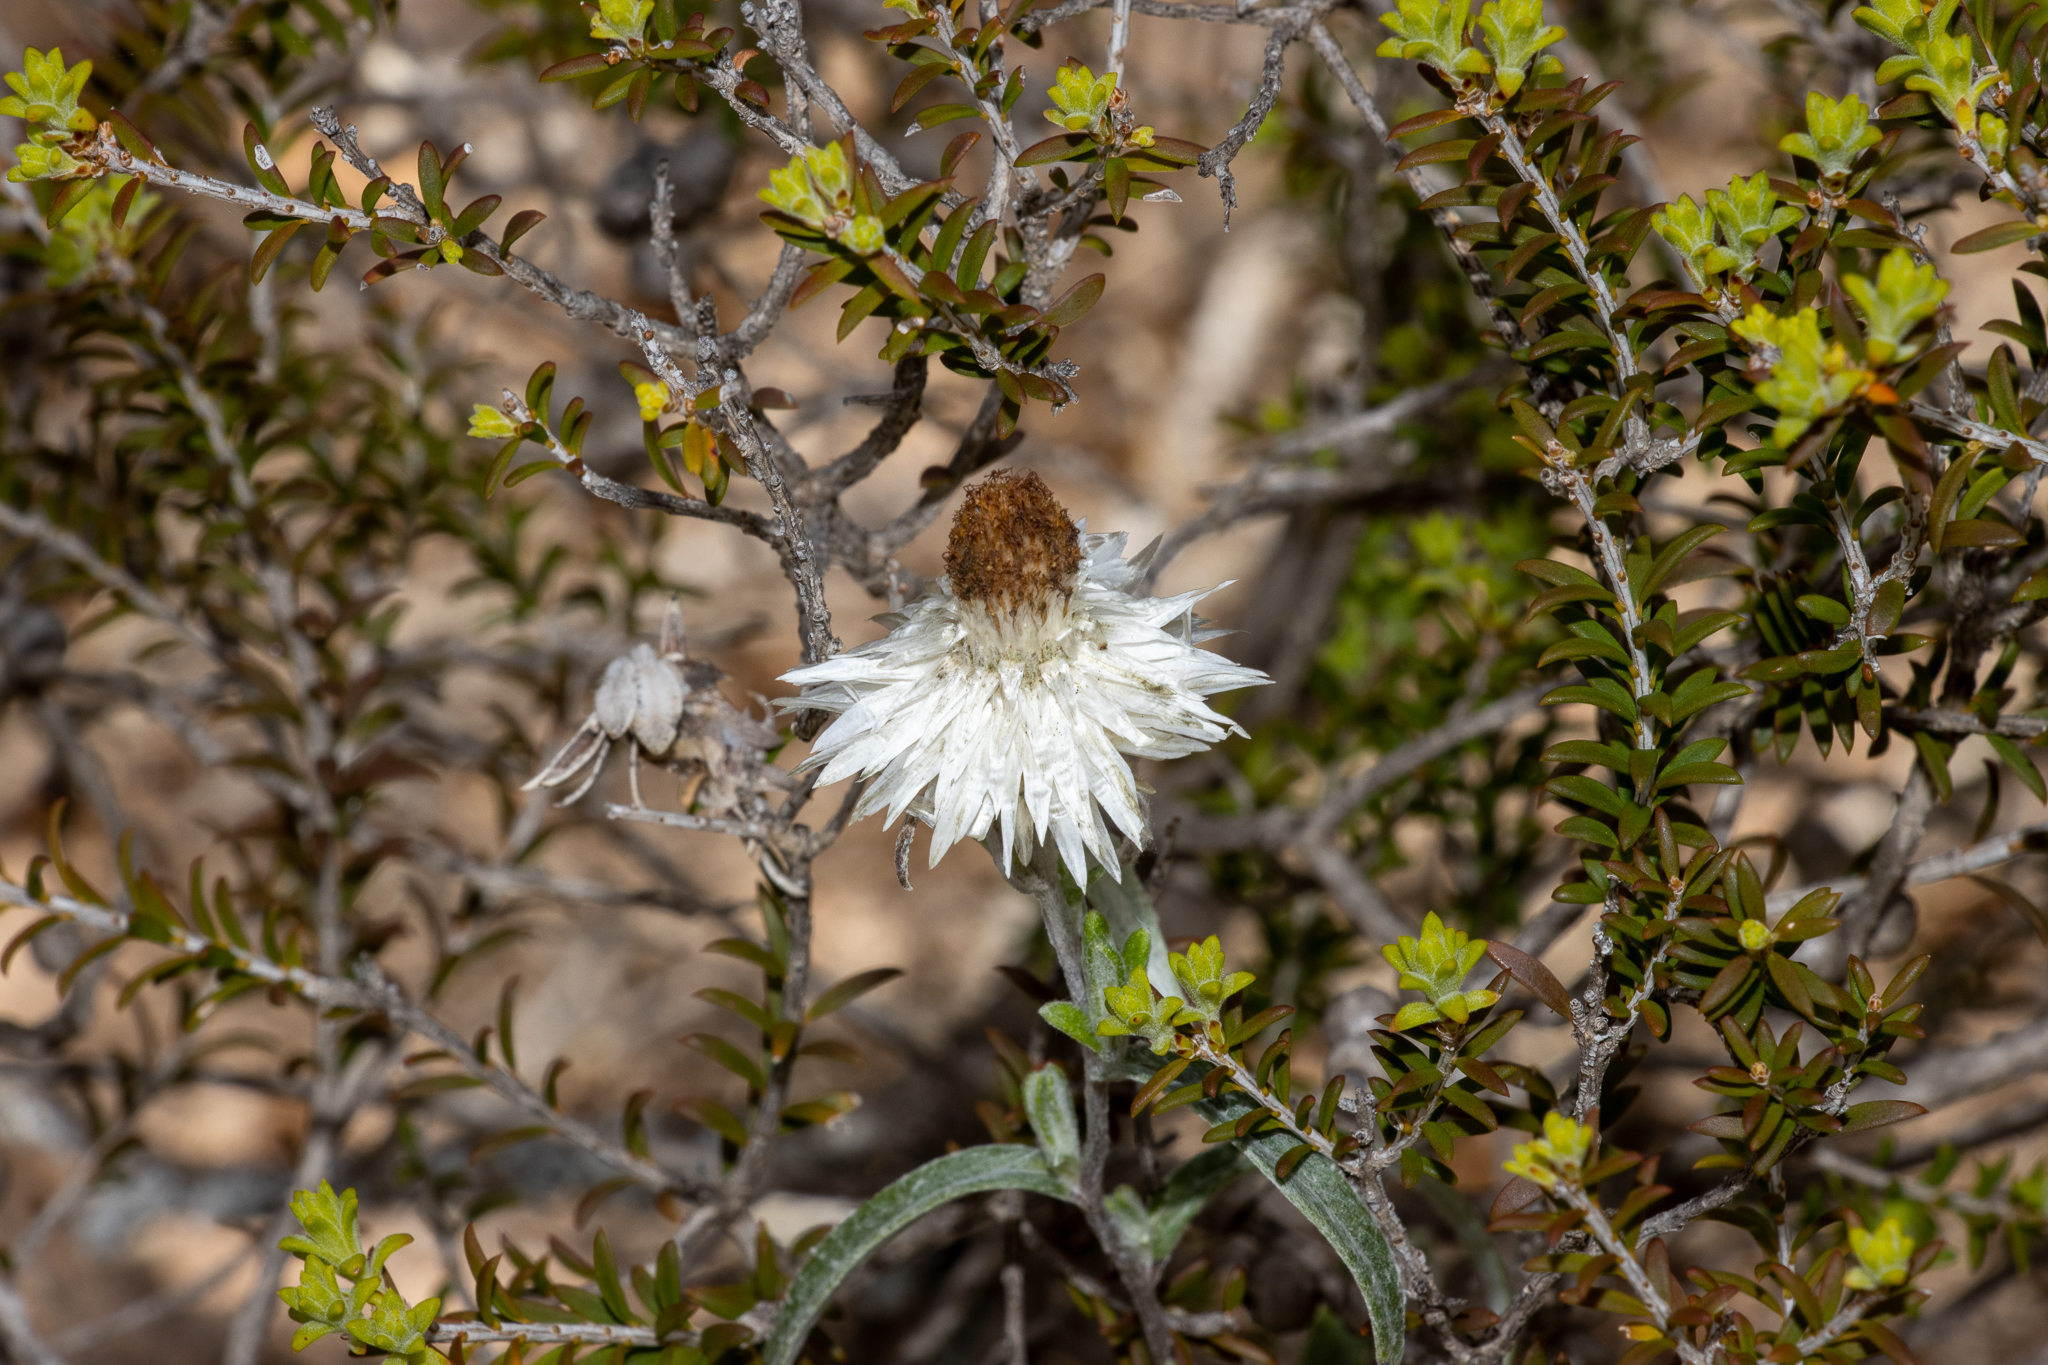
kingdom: Plantae
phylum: Tracheophyta
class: Magnoliopsida
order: Asterales
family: Asteraceae
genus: Helichrysum
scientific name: Helichrysum leucopsideum
